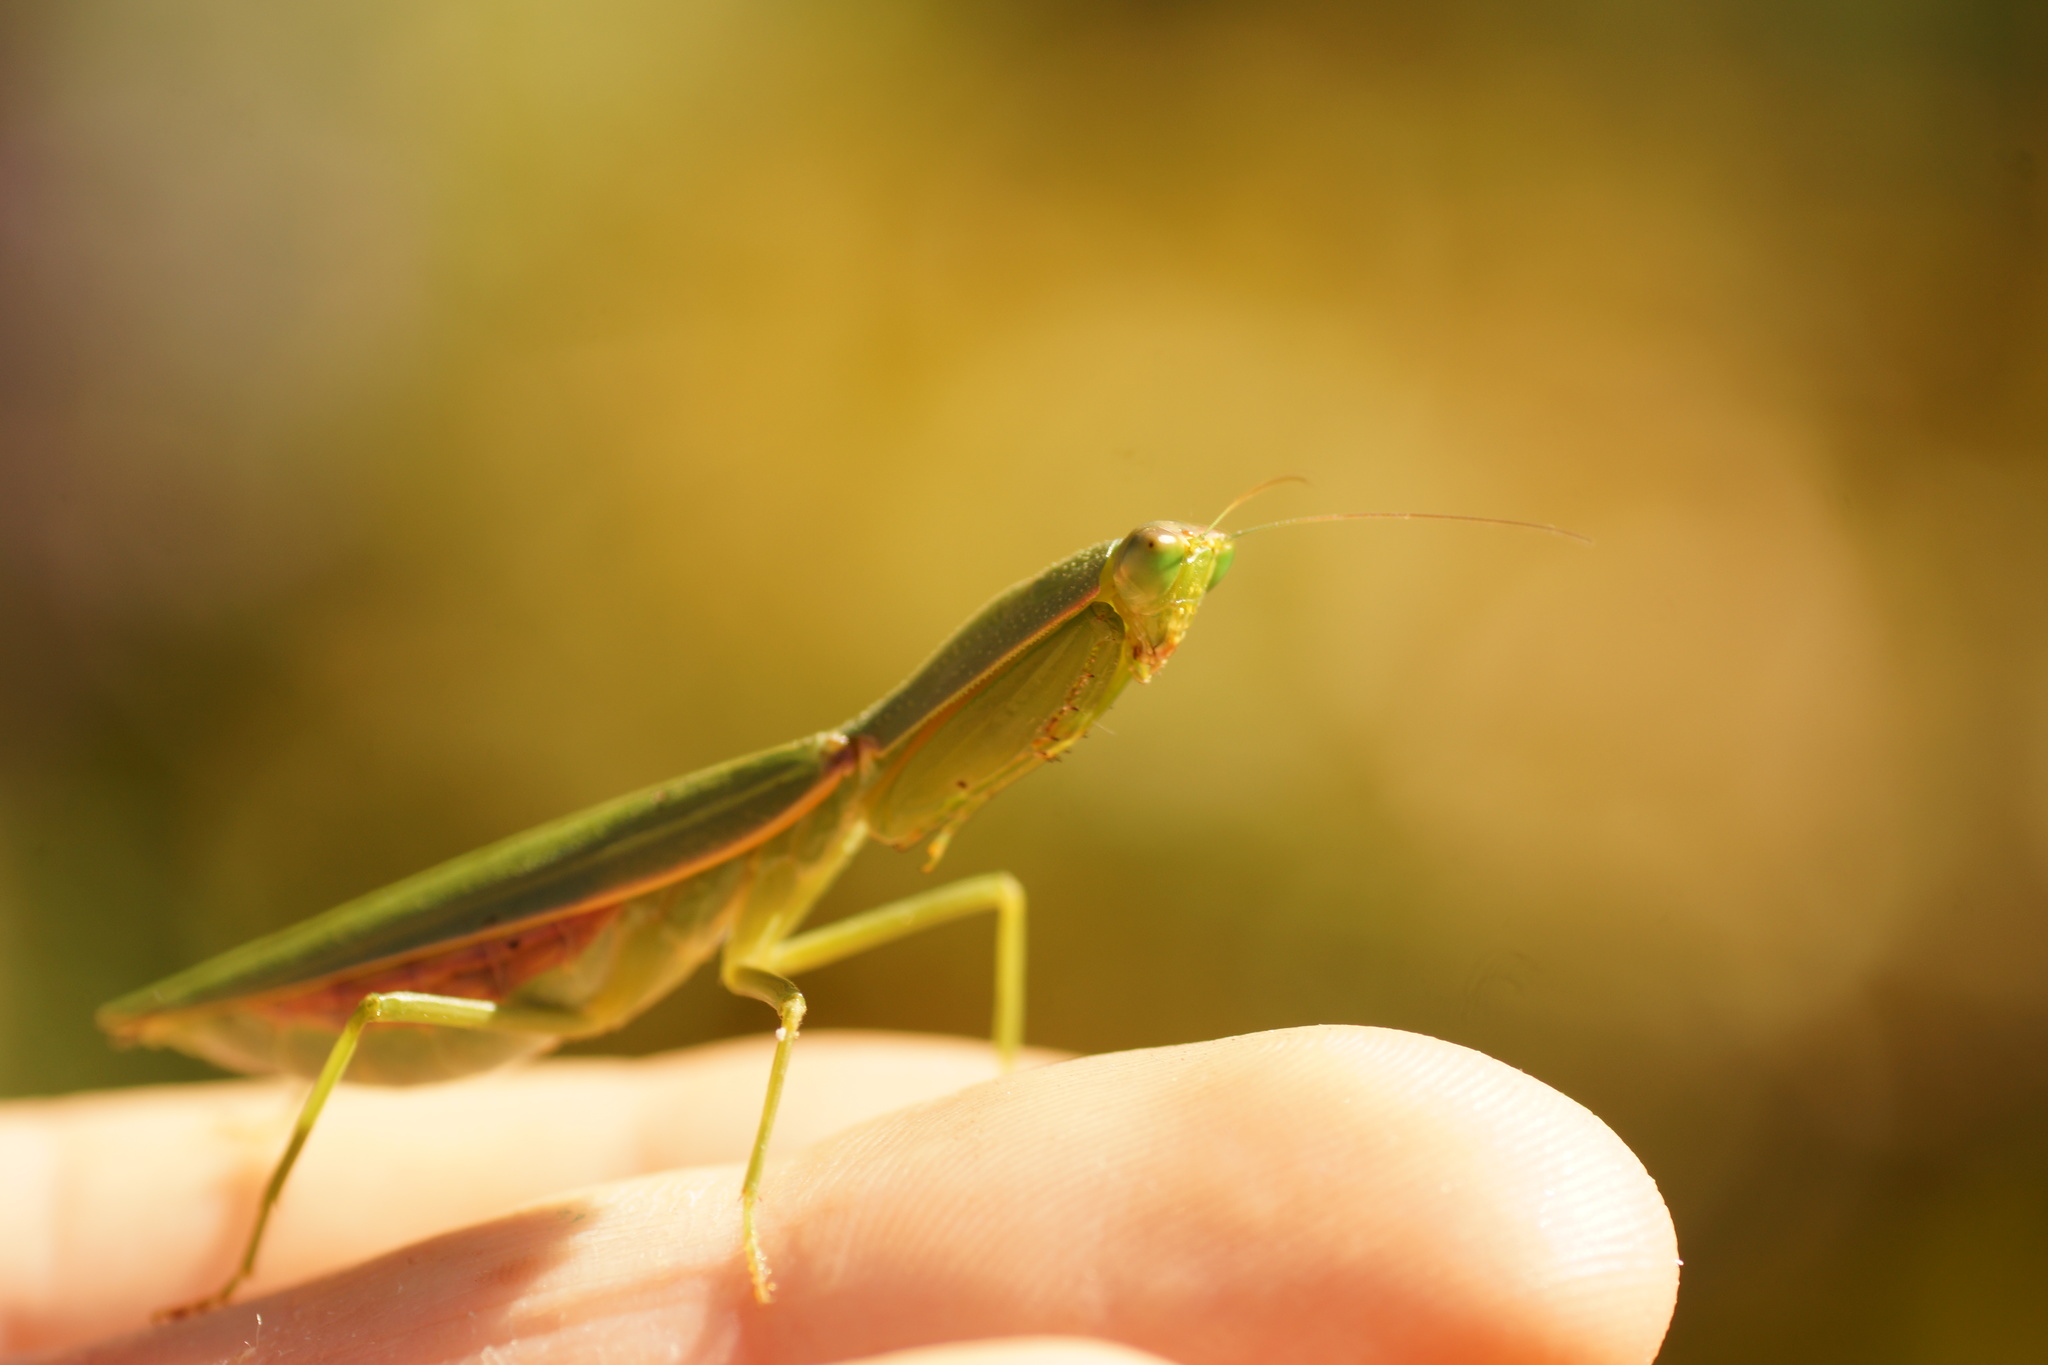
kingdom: Animalia
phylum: Arthropoda
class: Insecta
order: Mantodea
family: Mantidae
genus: Orthodera
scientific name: Orthodera ministralis
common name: Mantis
